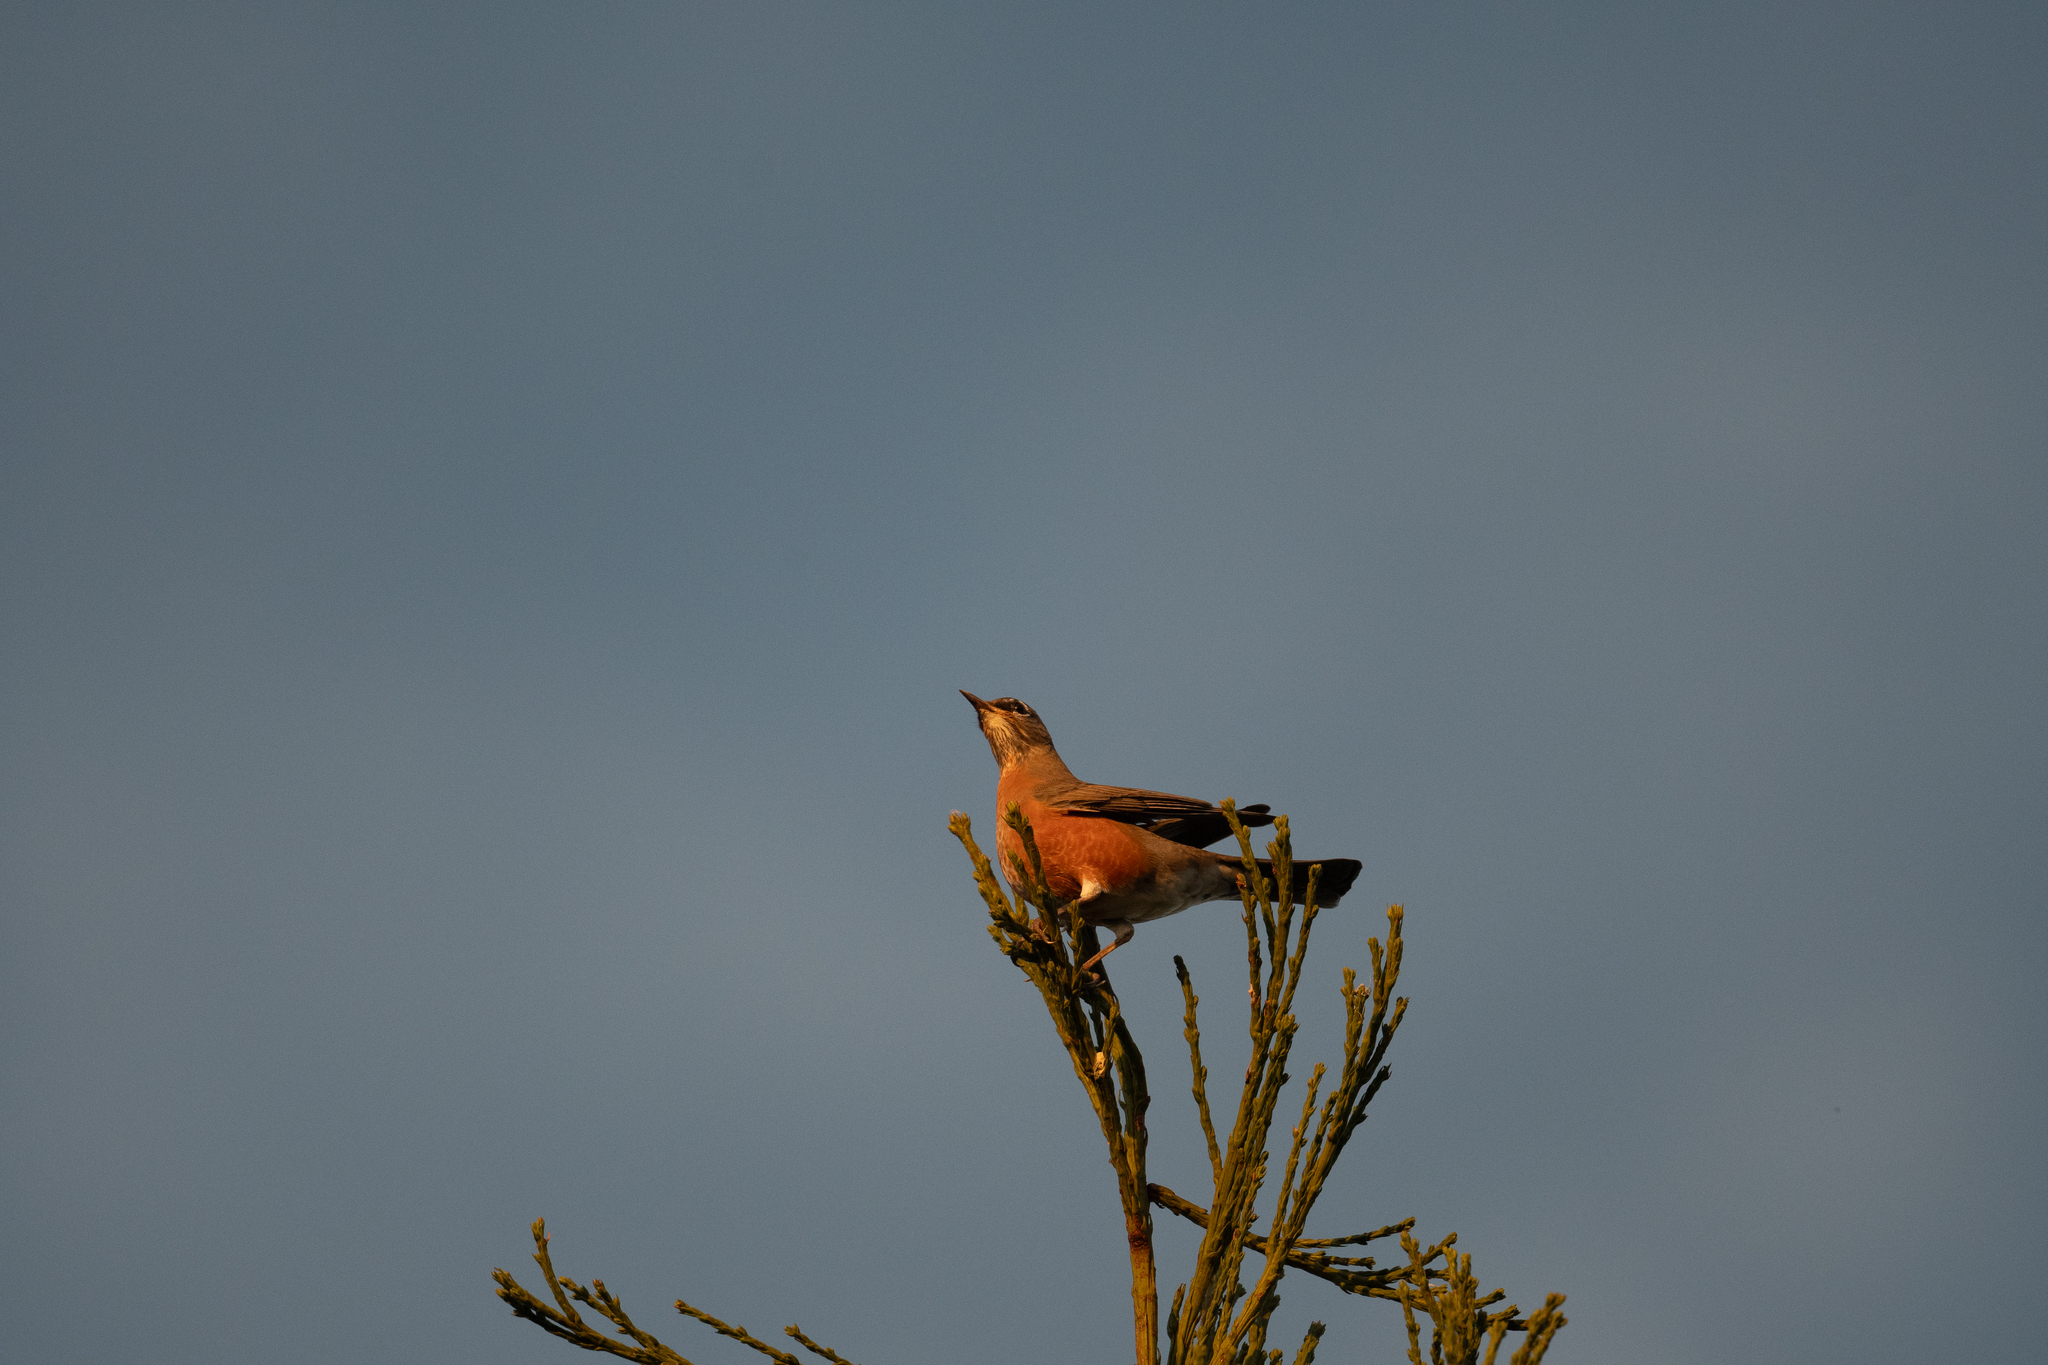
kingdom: Animalia
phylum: Chordata
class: Aves
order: Passeriformes
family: Turdidae
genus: Turdus
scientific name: Turdus migratorius
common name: American robin
